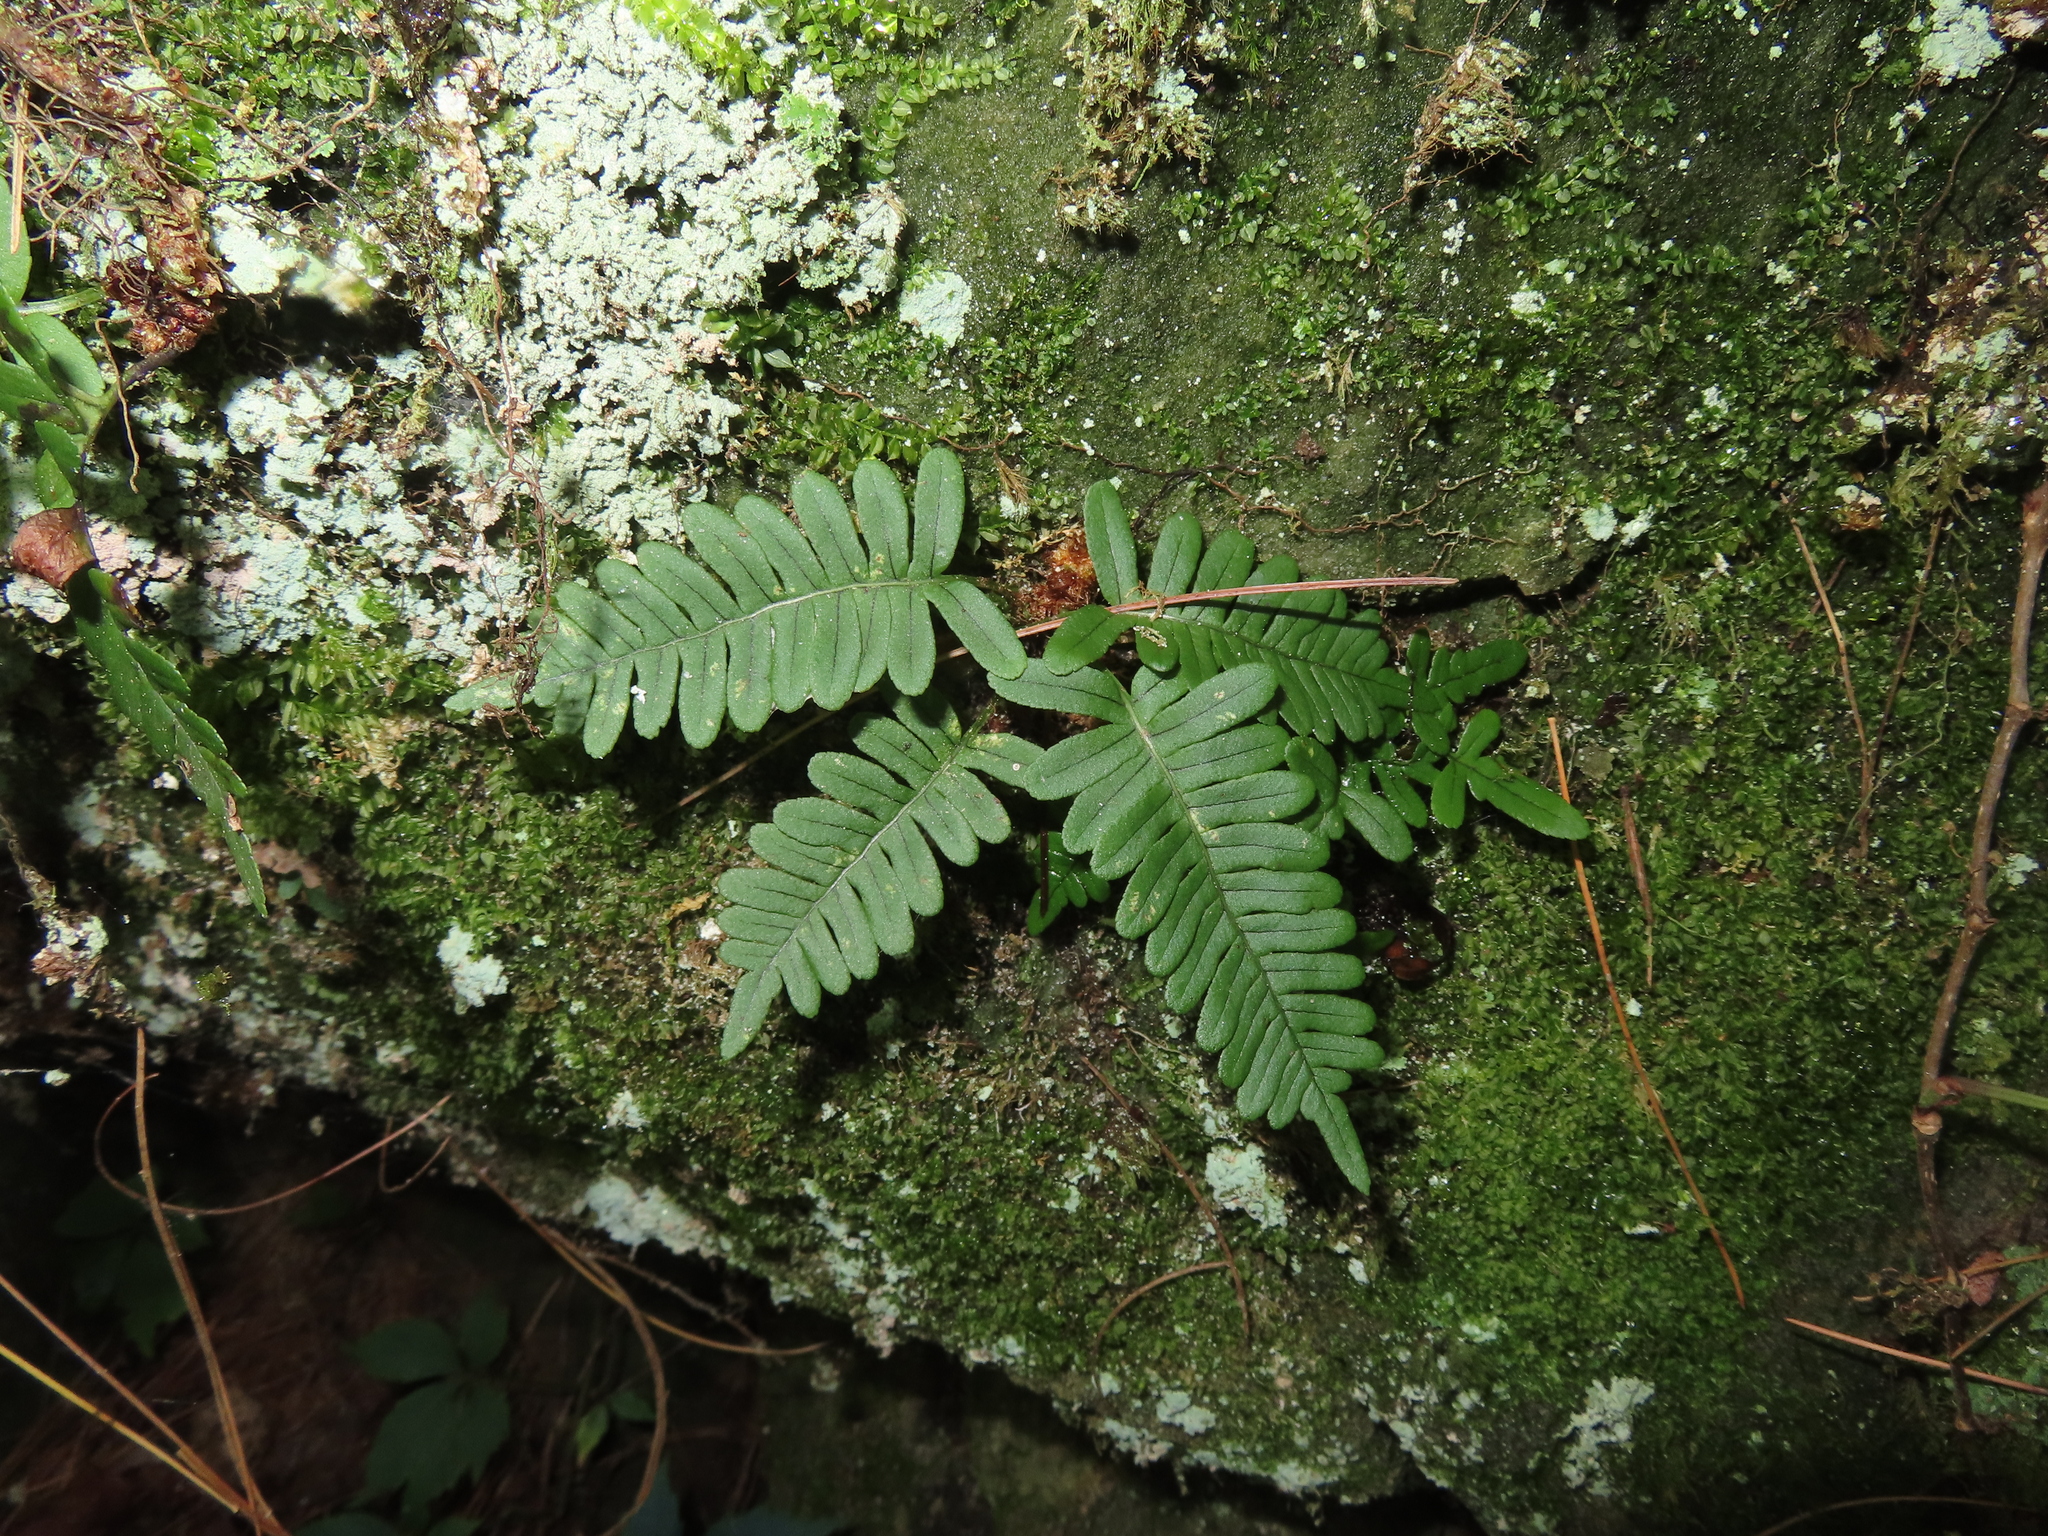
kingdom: Plantae
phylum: Tracheophyta
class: Polypodiopsida
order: Polypodiales
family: Polypodiaceae
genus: Polypodium
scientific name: Polypodium virginianum
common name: American wall fern
